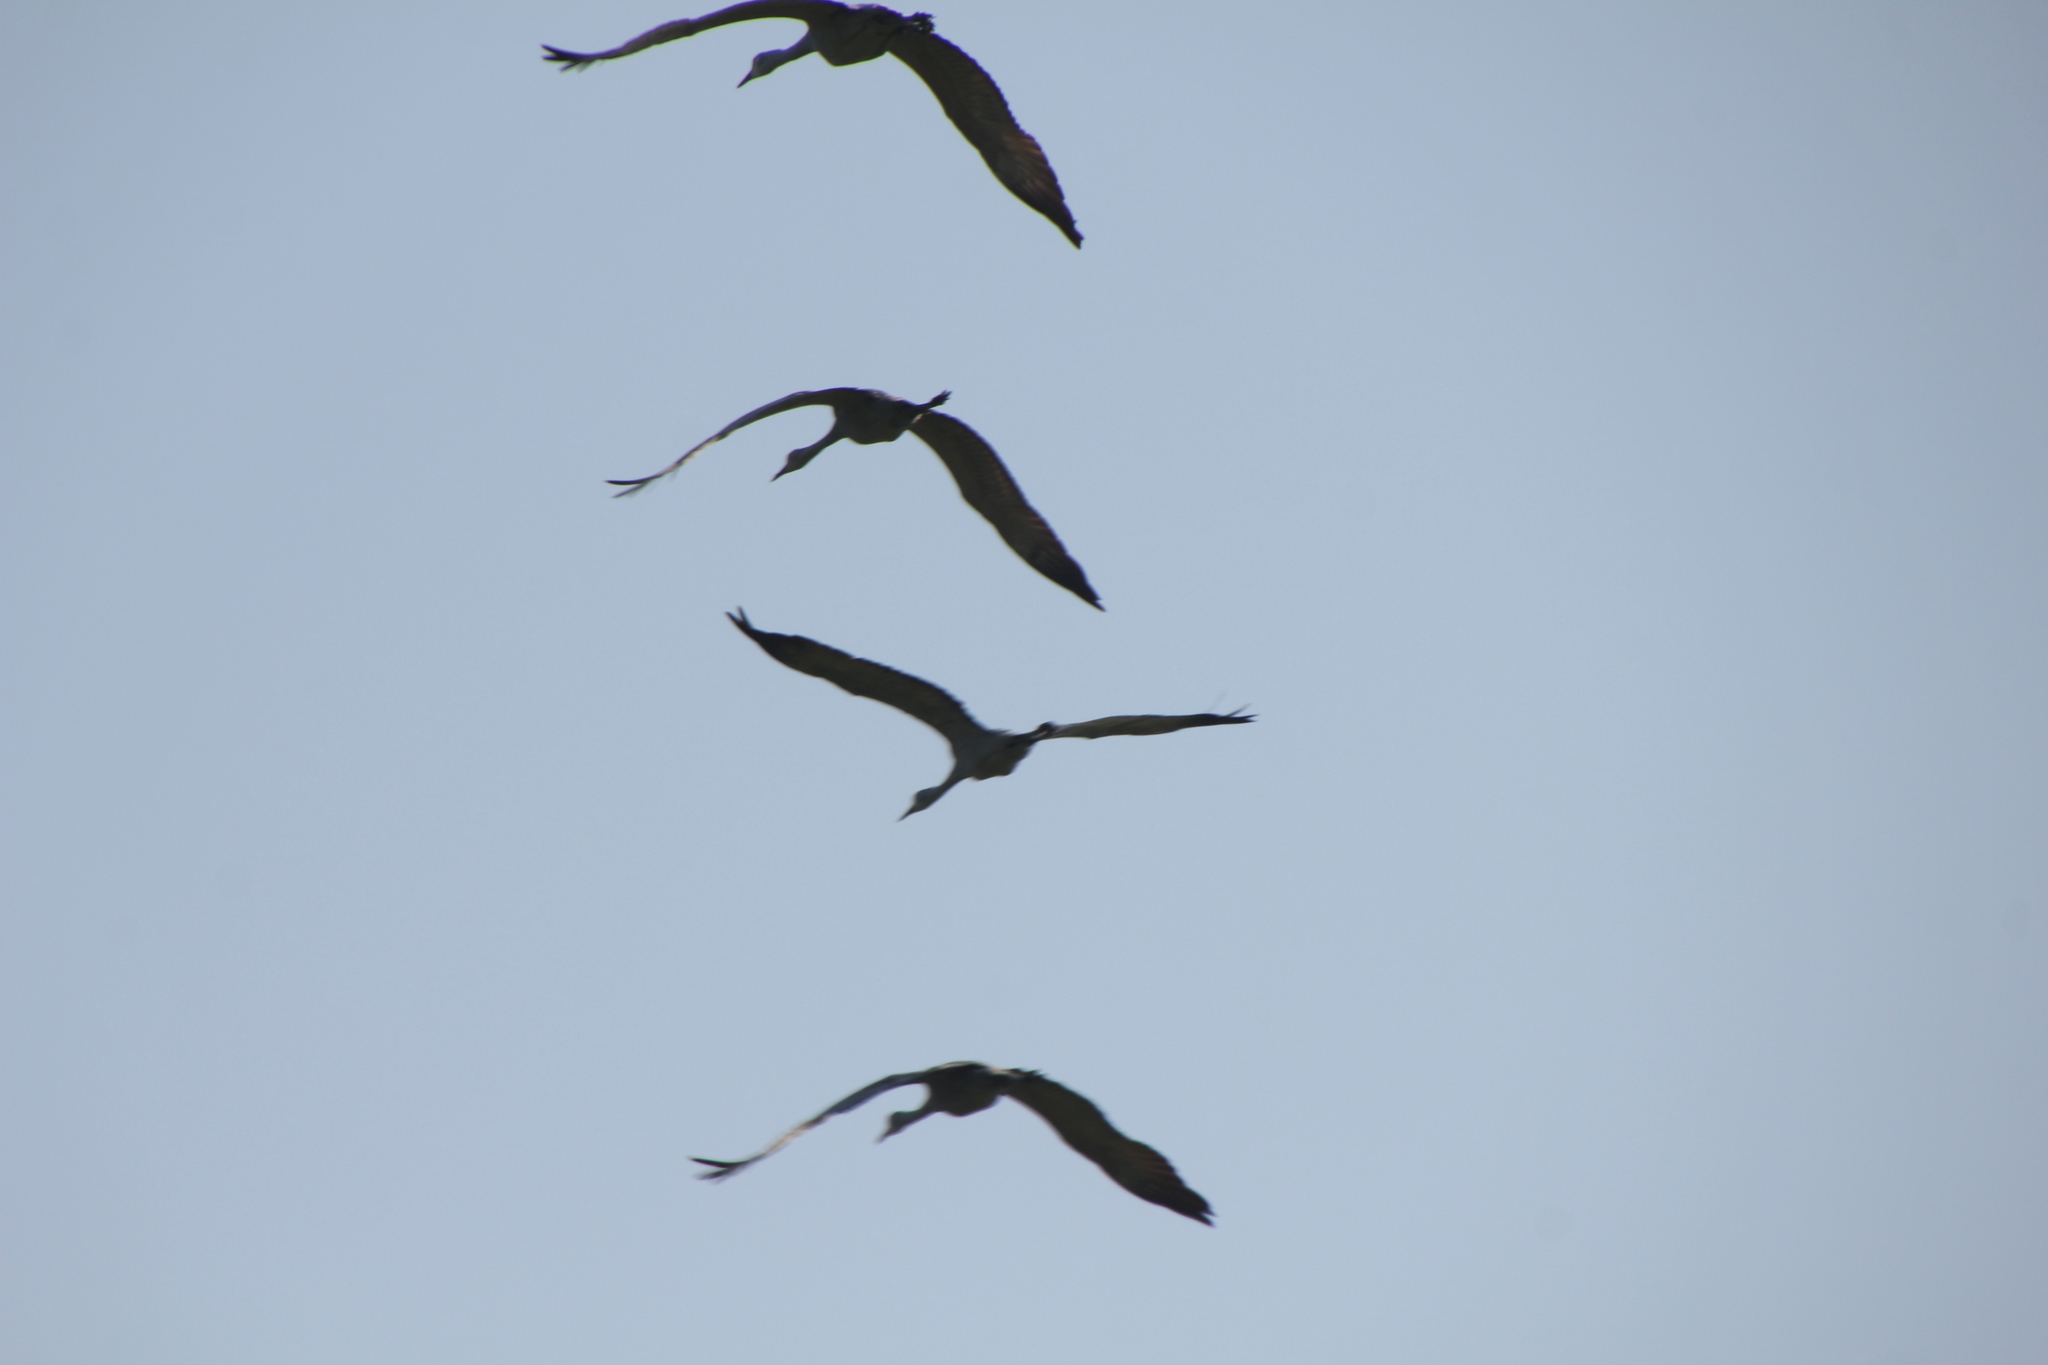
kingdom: Animalia
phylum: Chordata
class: Aves
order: Gruiformes
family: Gruidae
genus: Grus
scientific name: Grus canadensis
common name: Sandhill crane
